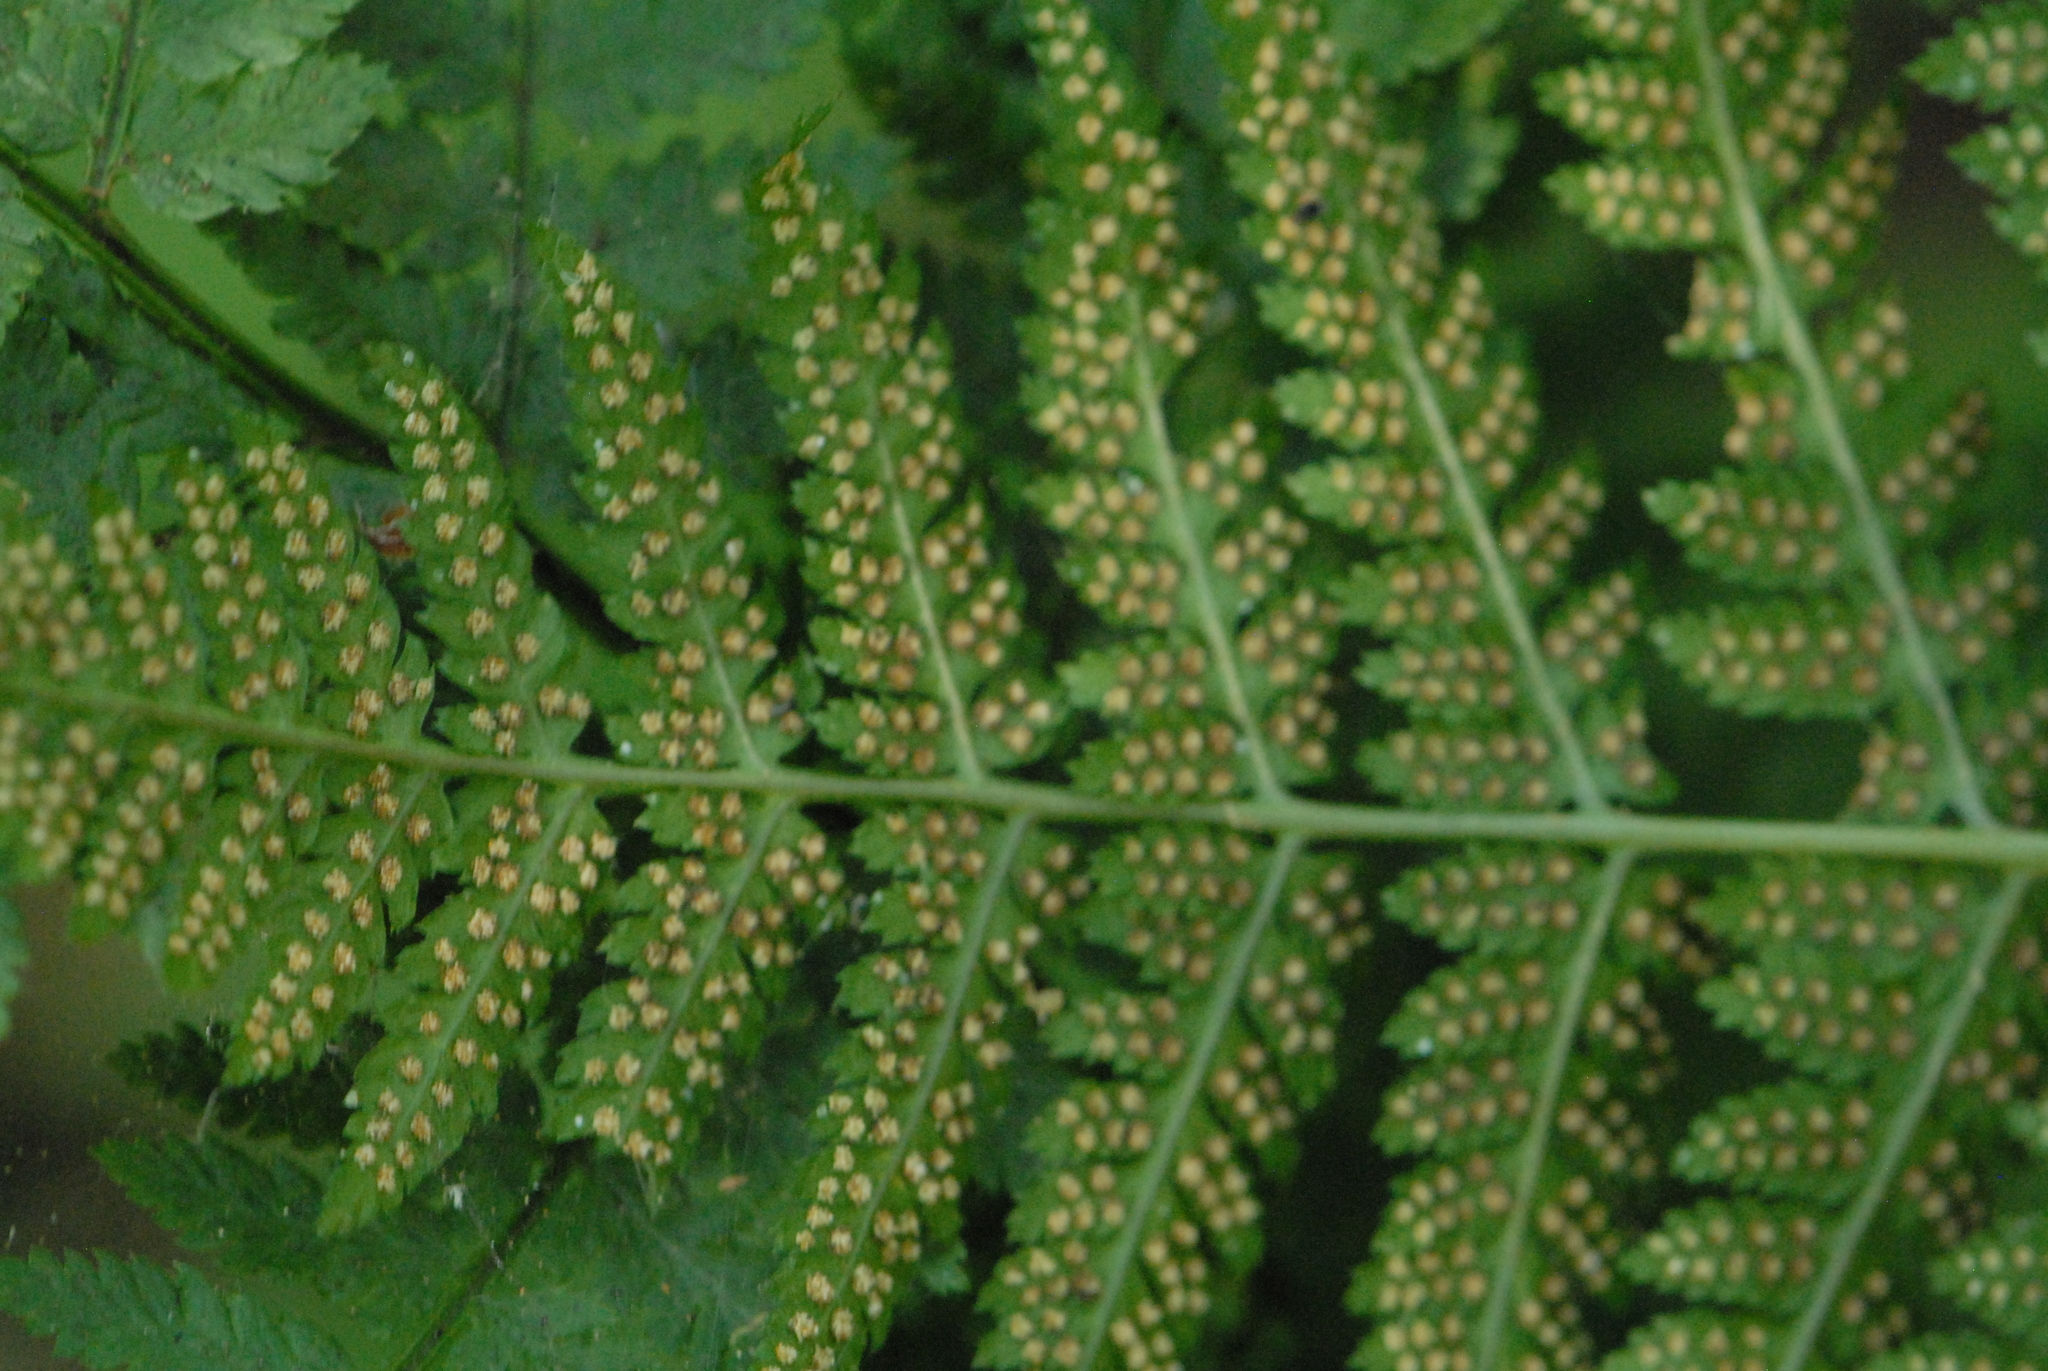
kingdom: Plantae
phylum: Tracheophyta
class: Polypodiopsida
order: Polypodiales
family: Dryopteridaceae
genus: Dryopteris
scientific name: Dryopteris carthusiana
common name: Narrow buckler-fern
